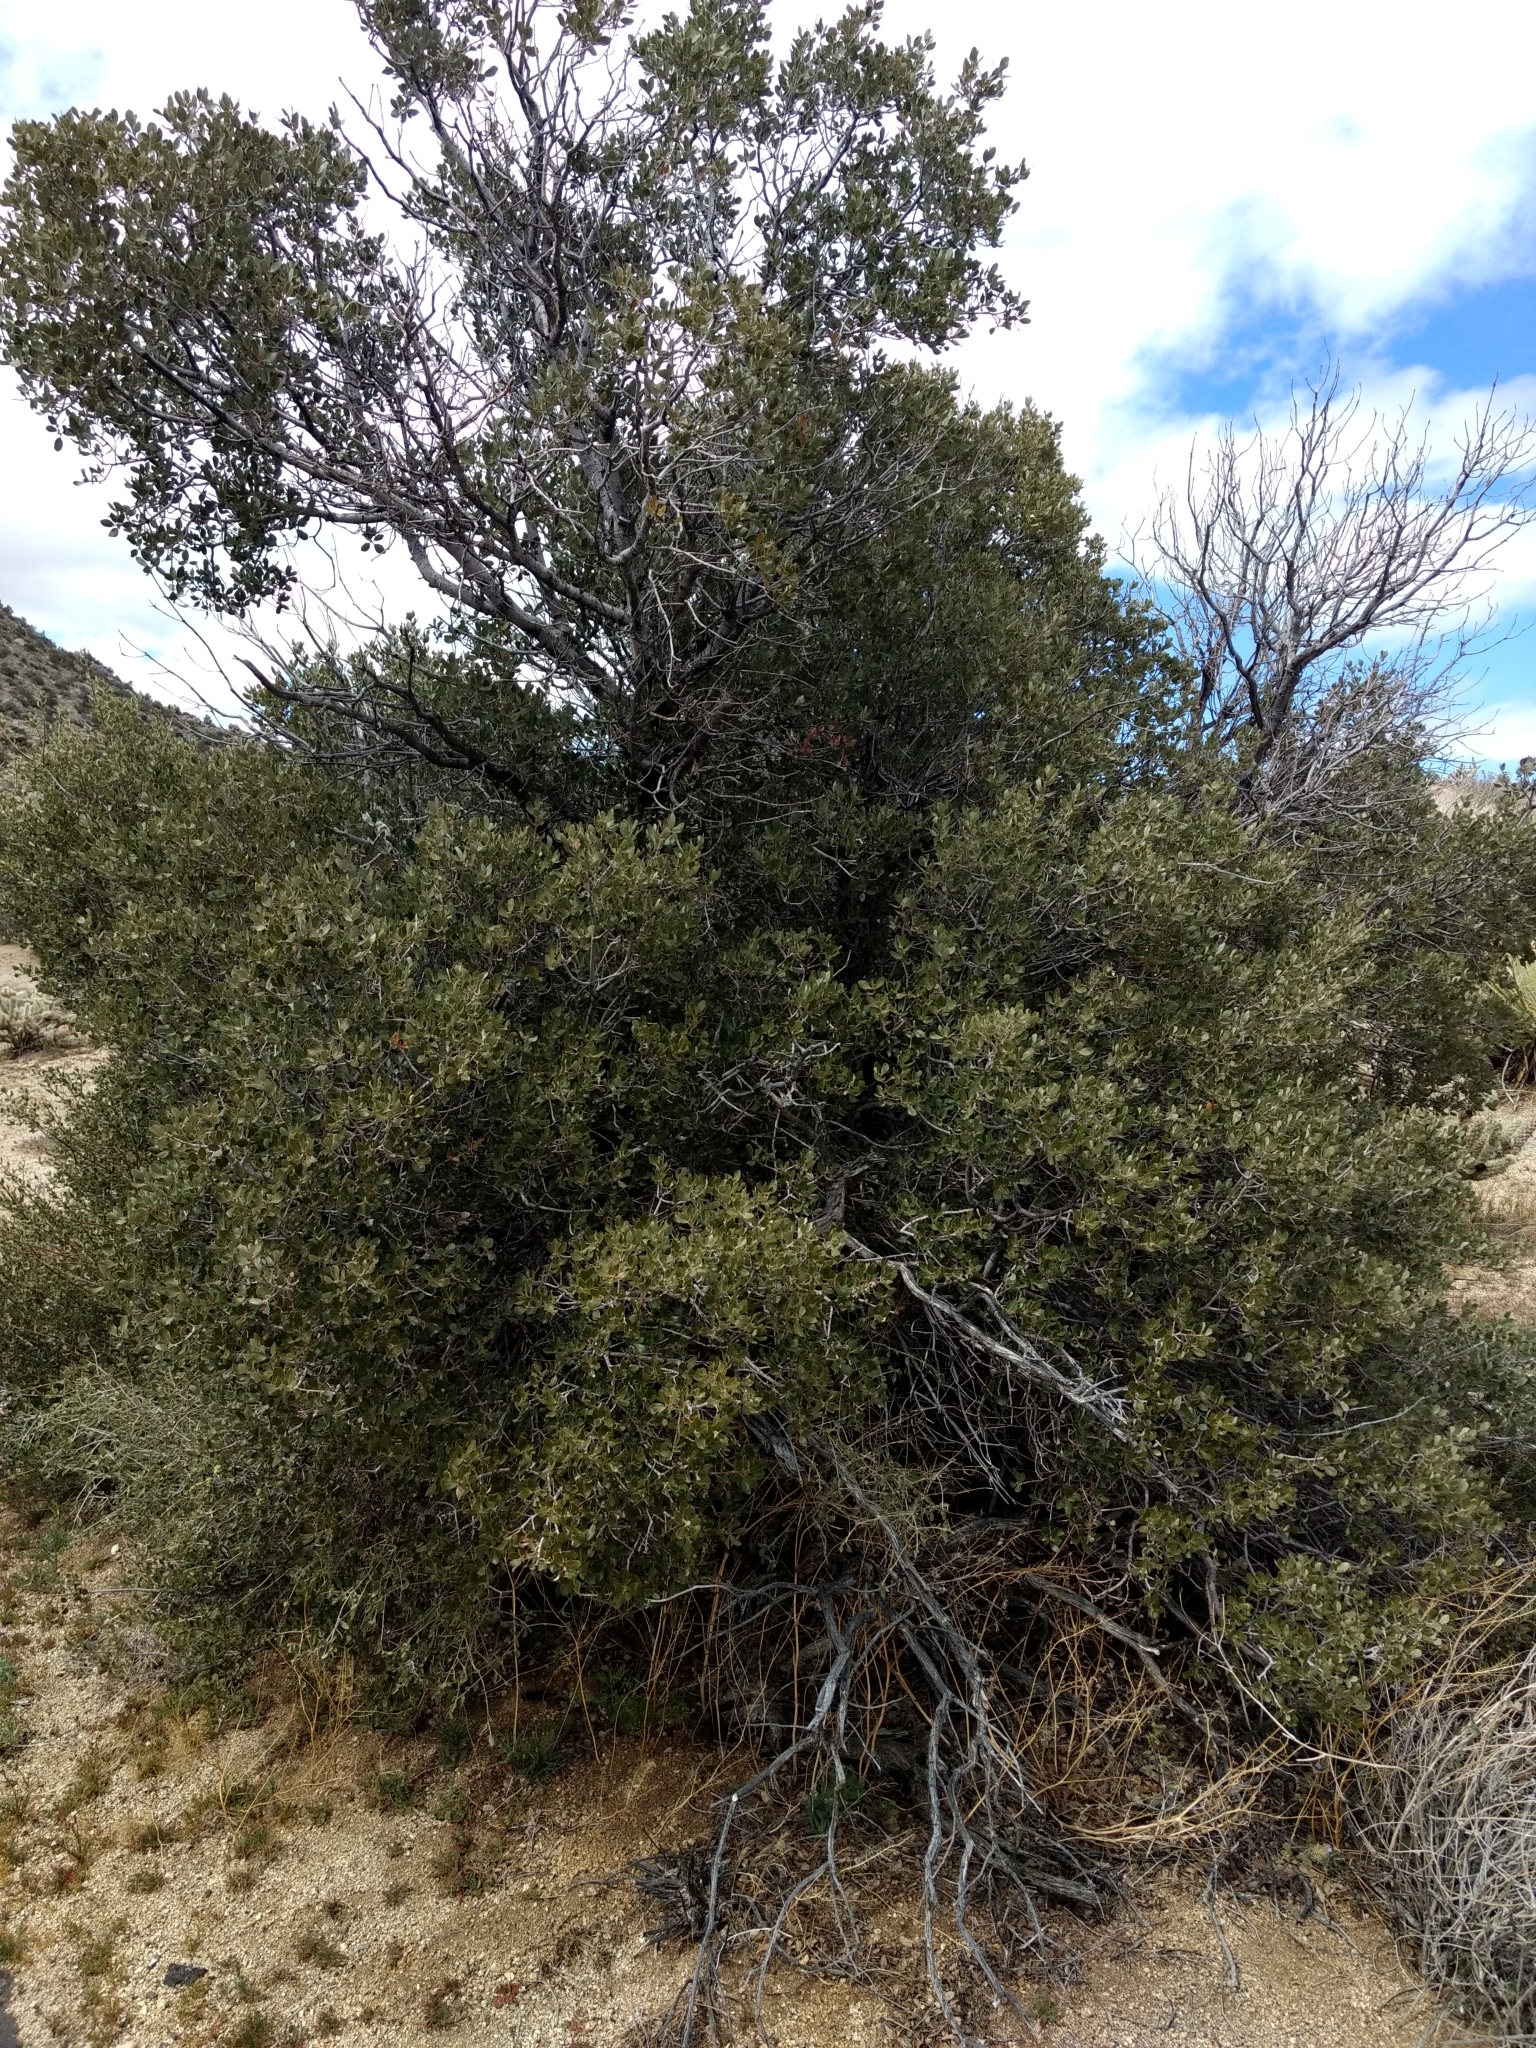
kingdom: Plantae
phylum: Tracheophyta
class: Magnoliopsida
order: Fagales
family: Fagaceae
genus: Quercus
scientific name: Quercus cornelius-mulleri
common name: Muller oak
